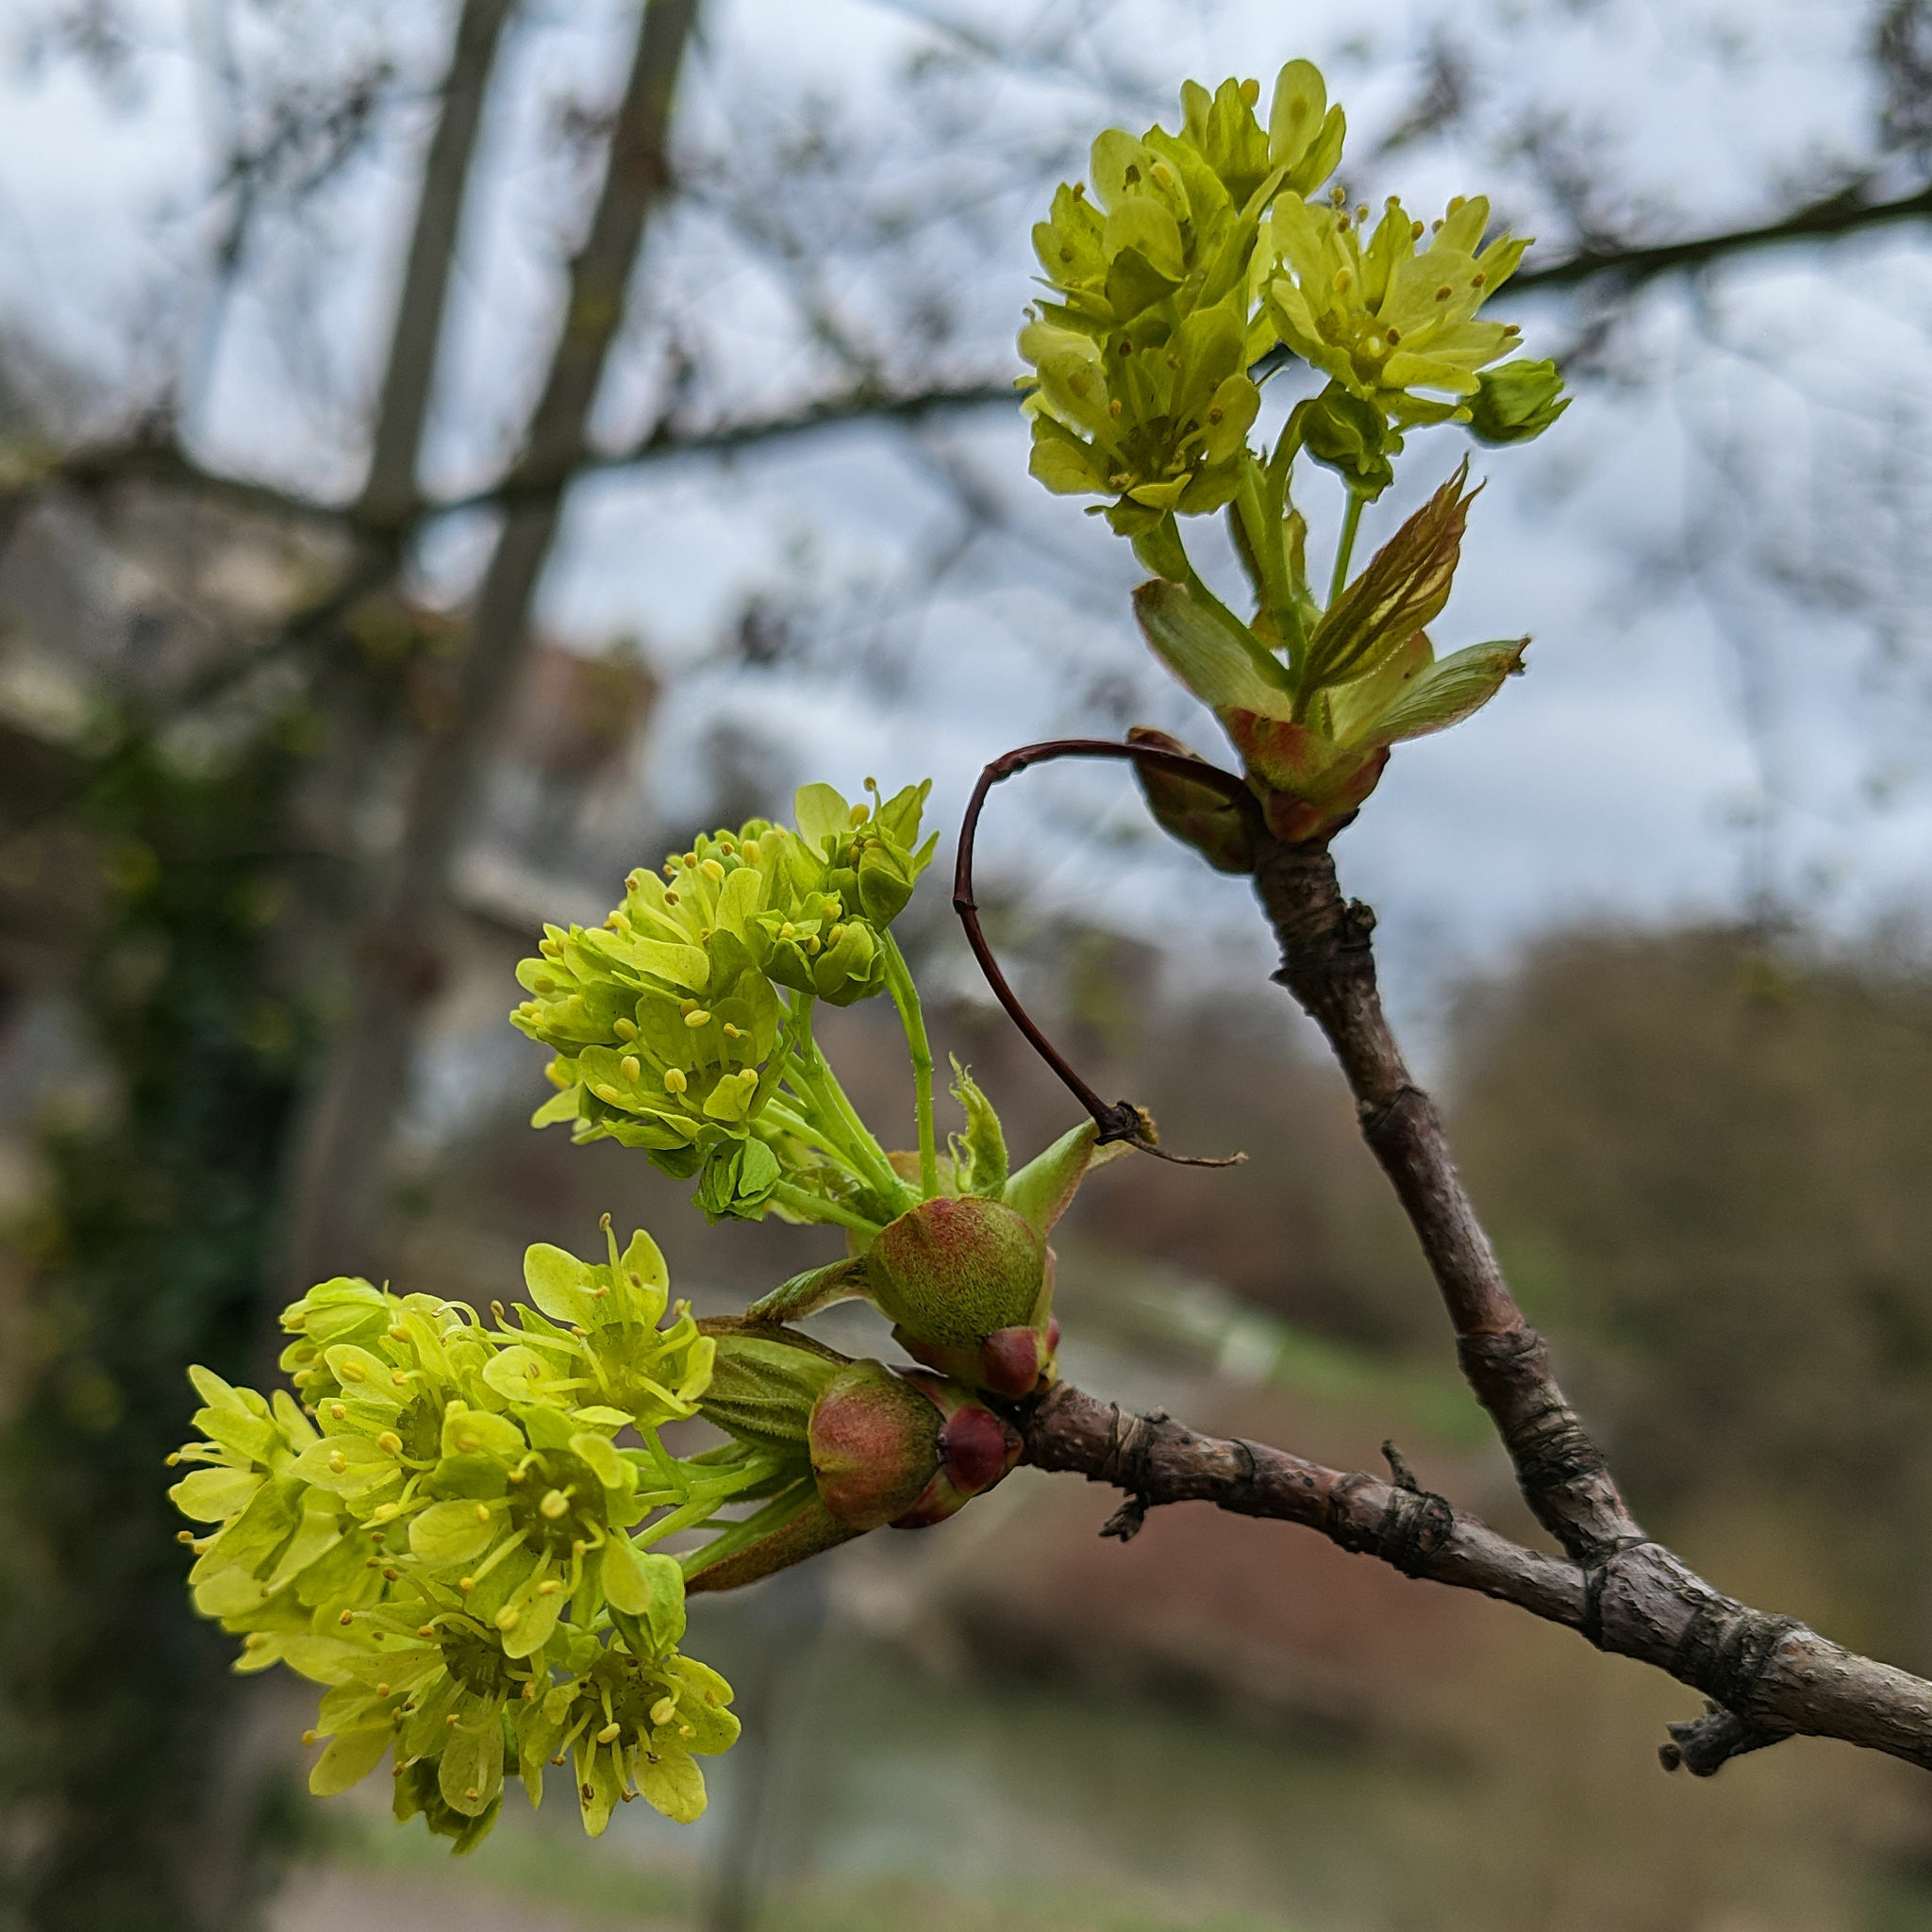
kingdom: Plantae
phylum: Tracheophyta
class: Magnoliopsida
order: Sapindales
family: Sapindaceae
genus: Acer
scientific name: Acer platanoides
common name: Norway maple
